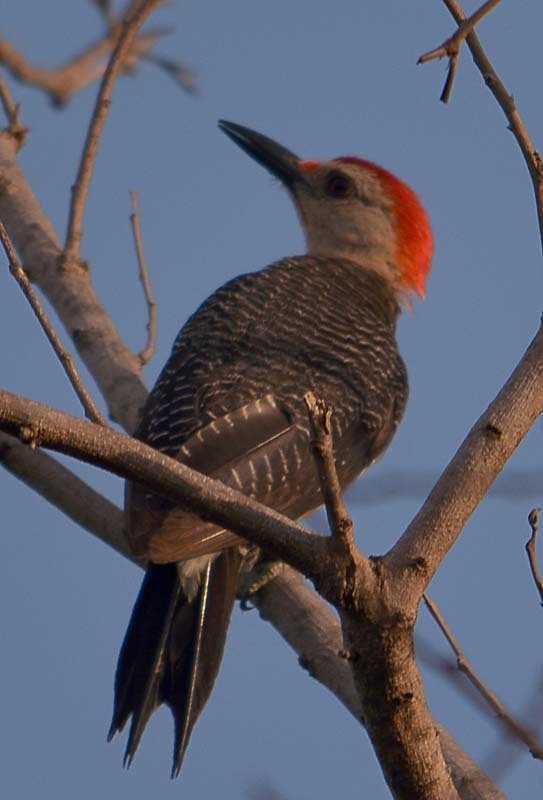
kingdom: Animalia
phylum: Chordata
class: Aves
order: Piciformes
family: Picidae
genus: Melanerpes
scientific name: Melanerpes aurifrons
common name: Golden-fronted woodpecker
